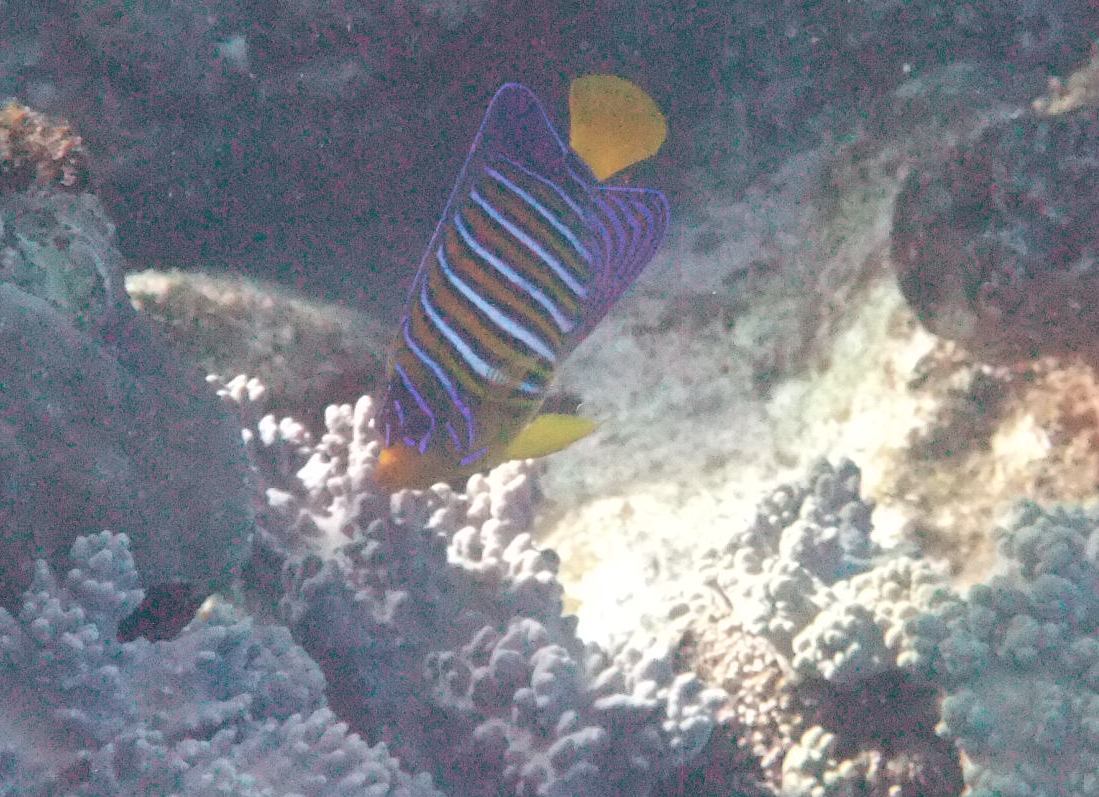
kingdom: Animalia
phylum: Chordata
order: Perciformes
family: Pomacanthidae
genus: Pygoplites
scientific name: Pygoplites diacanthus
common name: Regal angelfish
